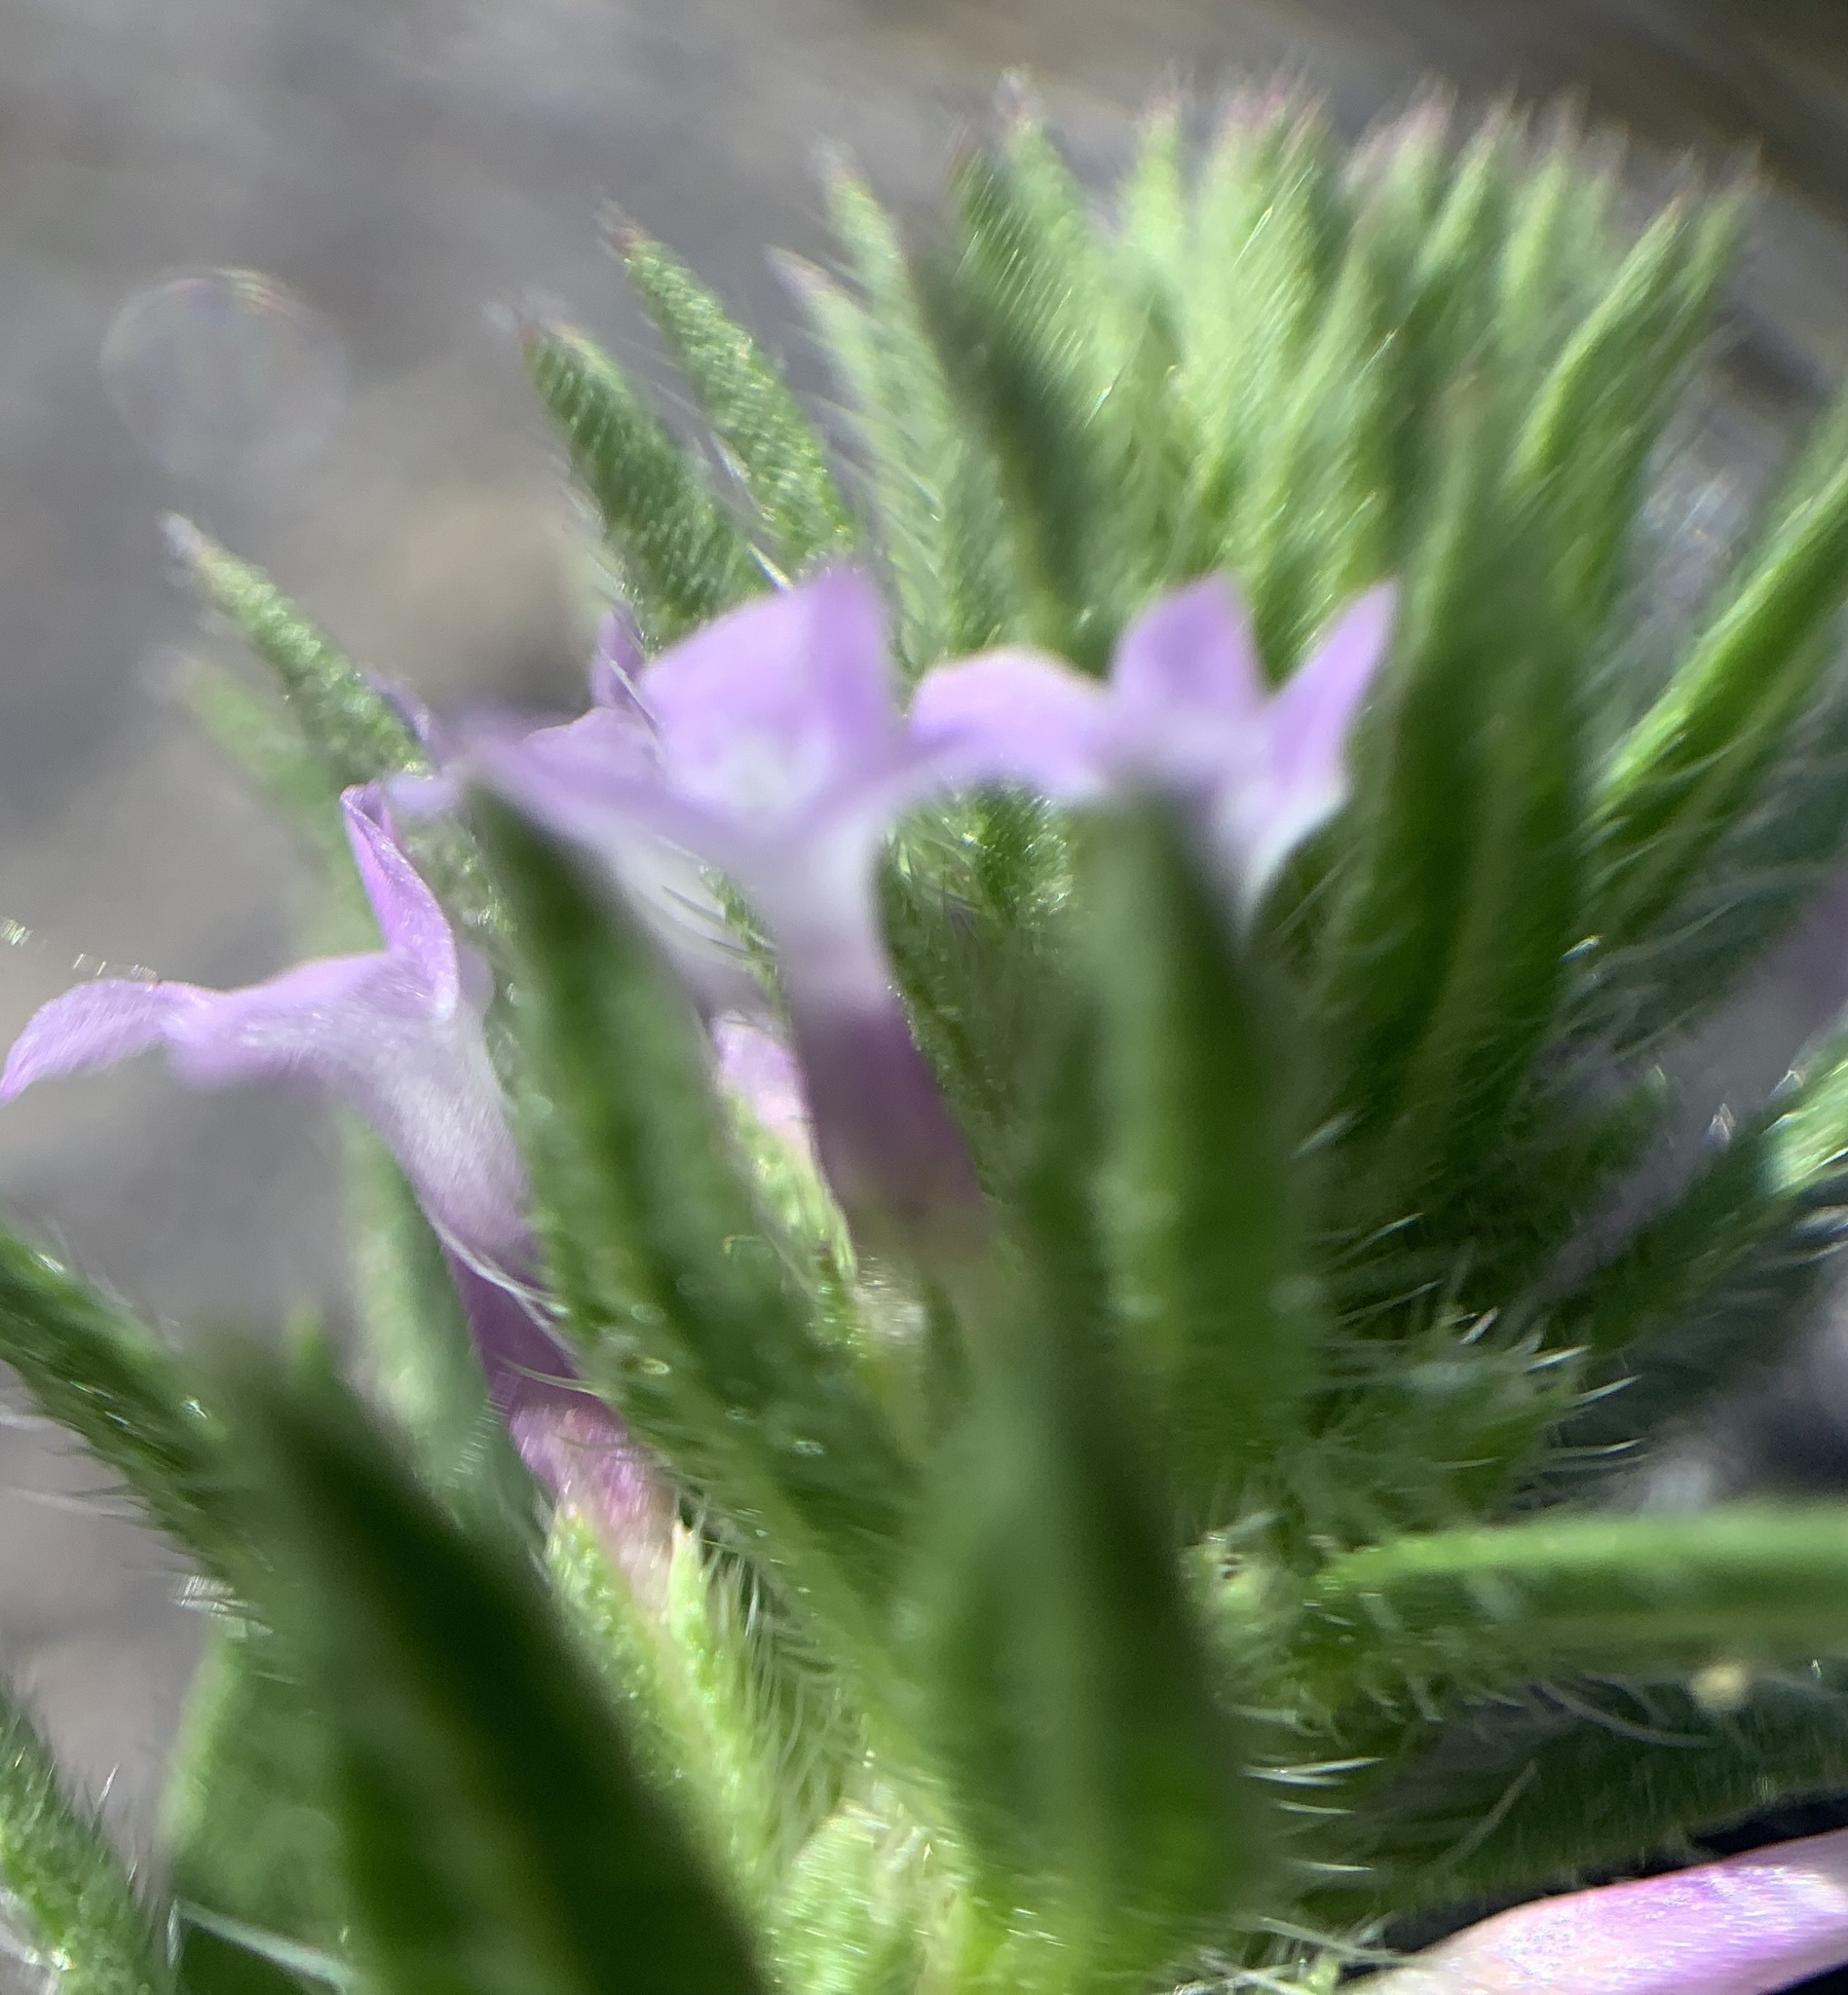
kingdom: Plantae
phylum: Tracheophyta
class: Magnoliopsida
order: Lamiales
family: Verbenaceae
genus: Verbena
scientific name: Verbena bracteata
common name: Bracted vervain
